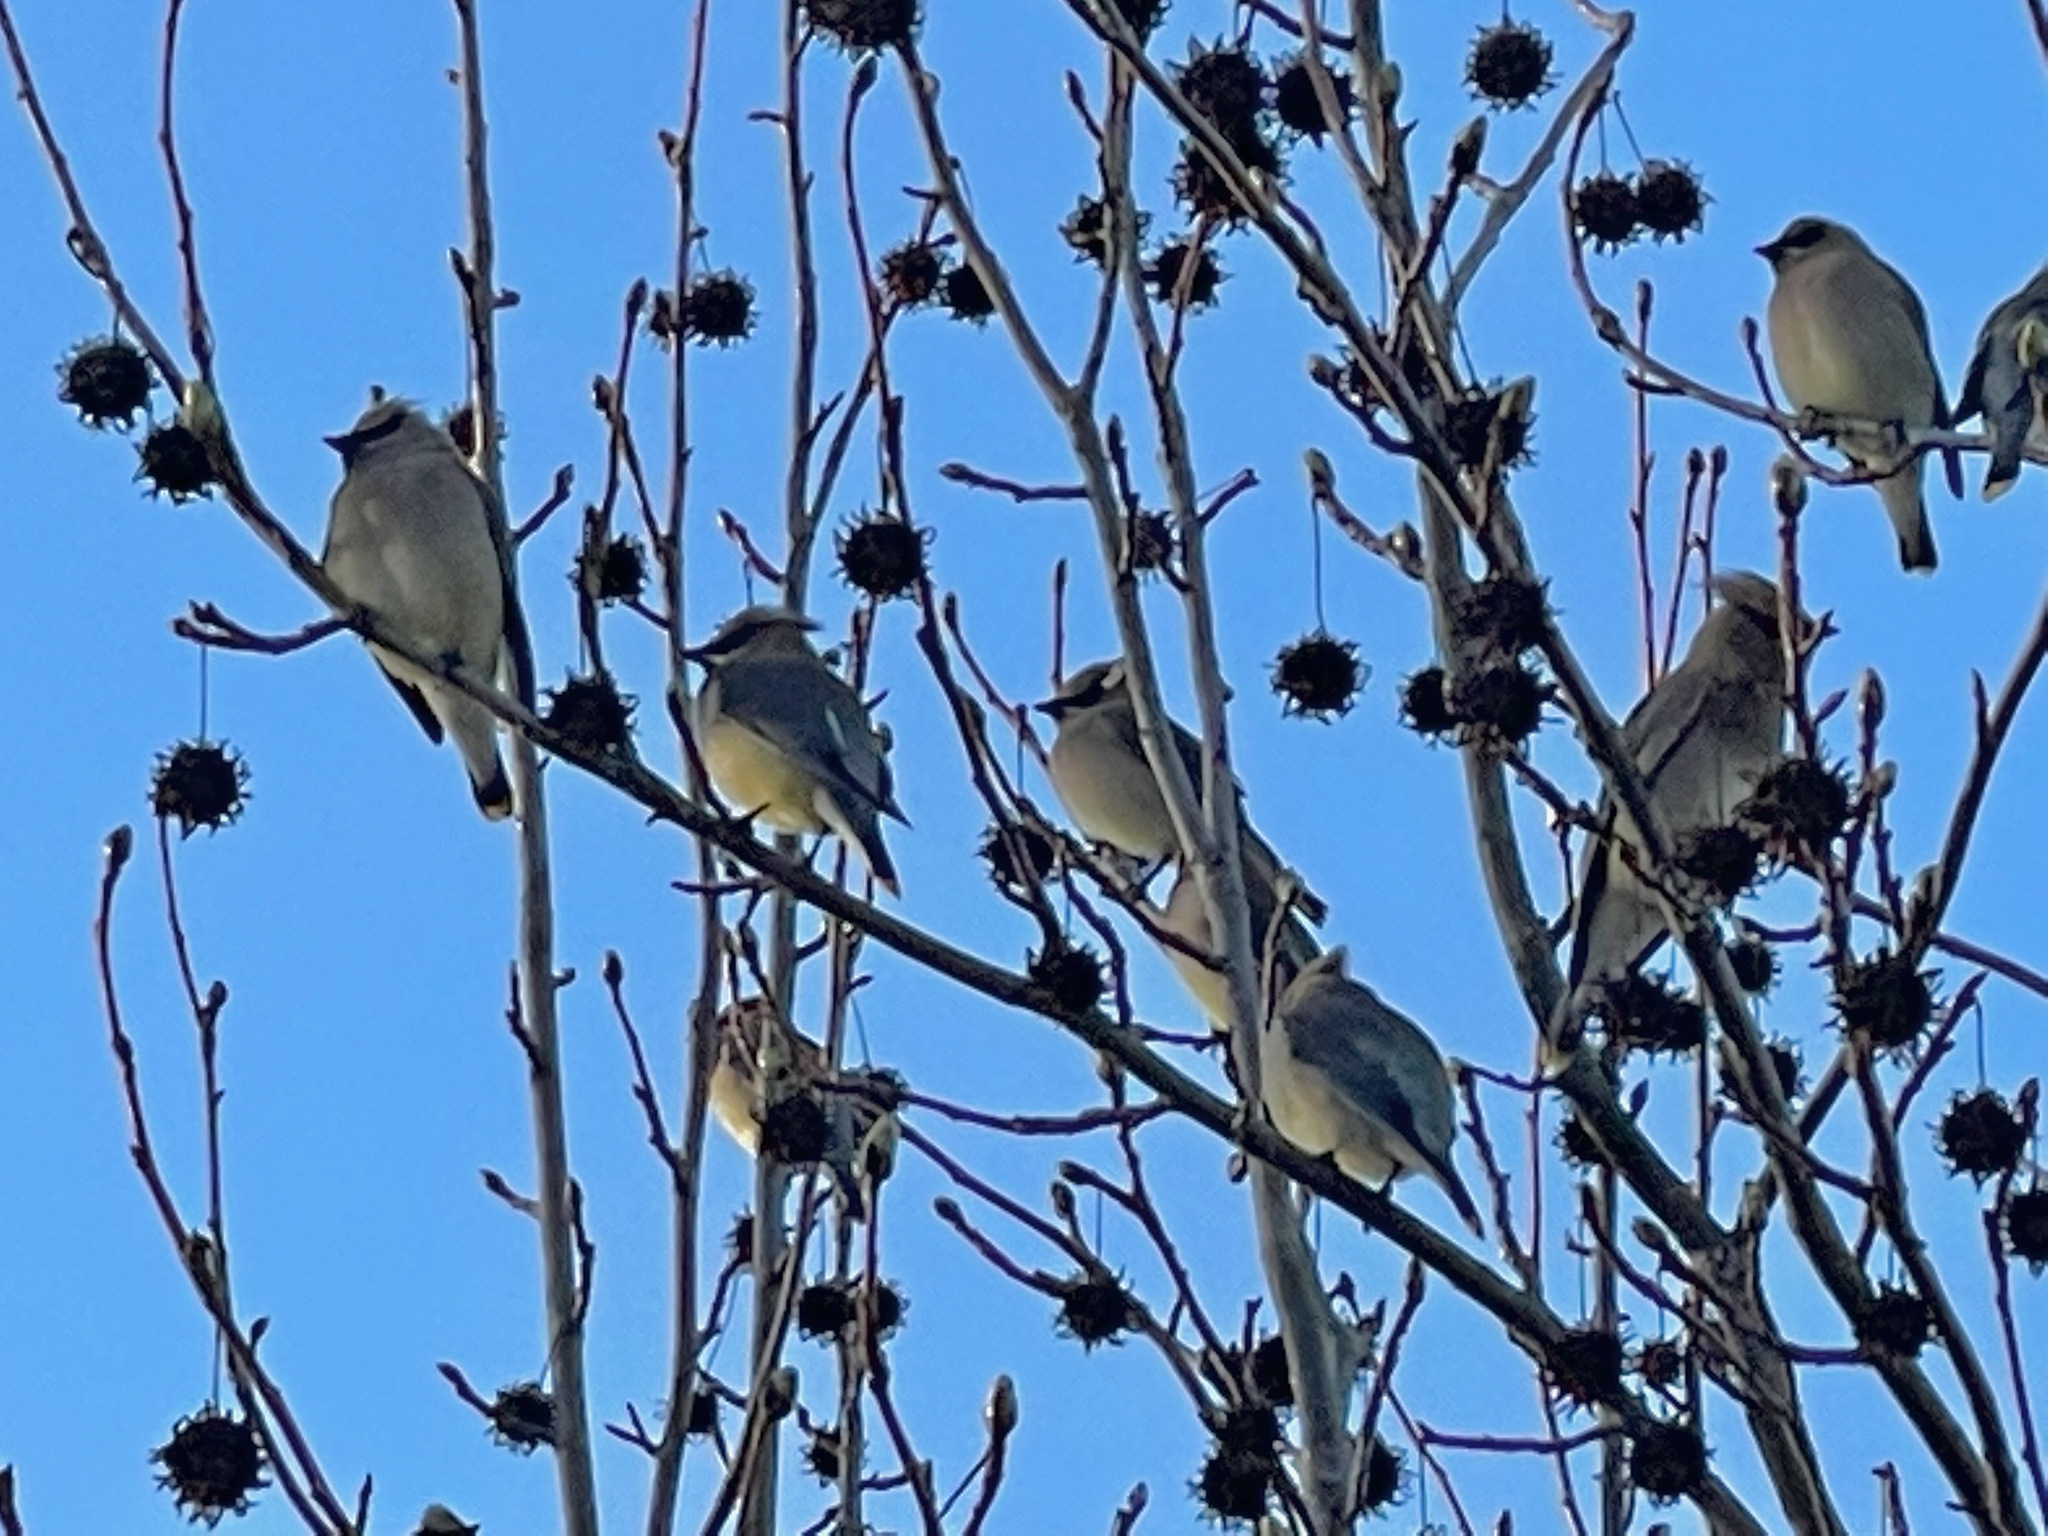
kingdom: Animalia
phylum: Chordata
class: Aves
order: Passeriformes
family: Bombycillidae
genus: Bombycilla
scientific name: Bombycilla cedrorum
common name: Cedar waxwing
